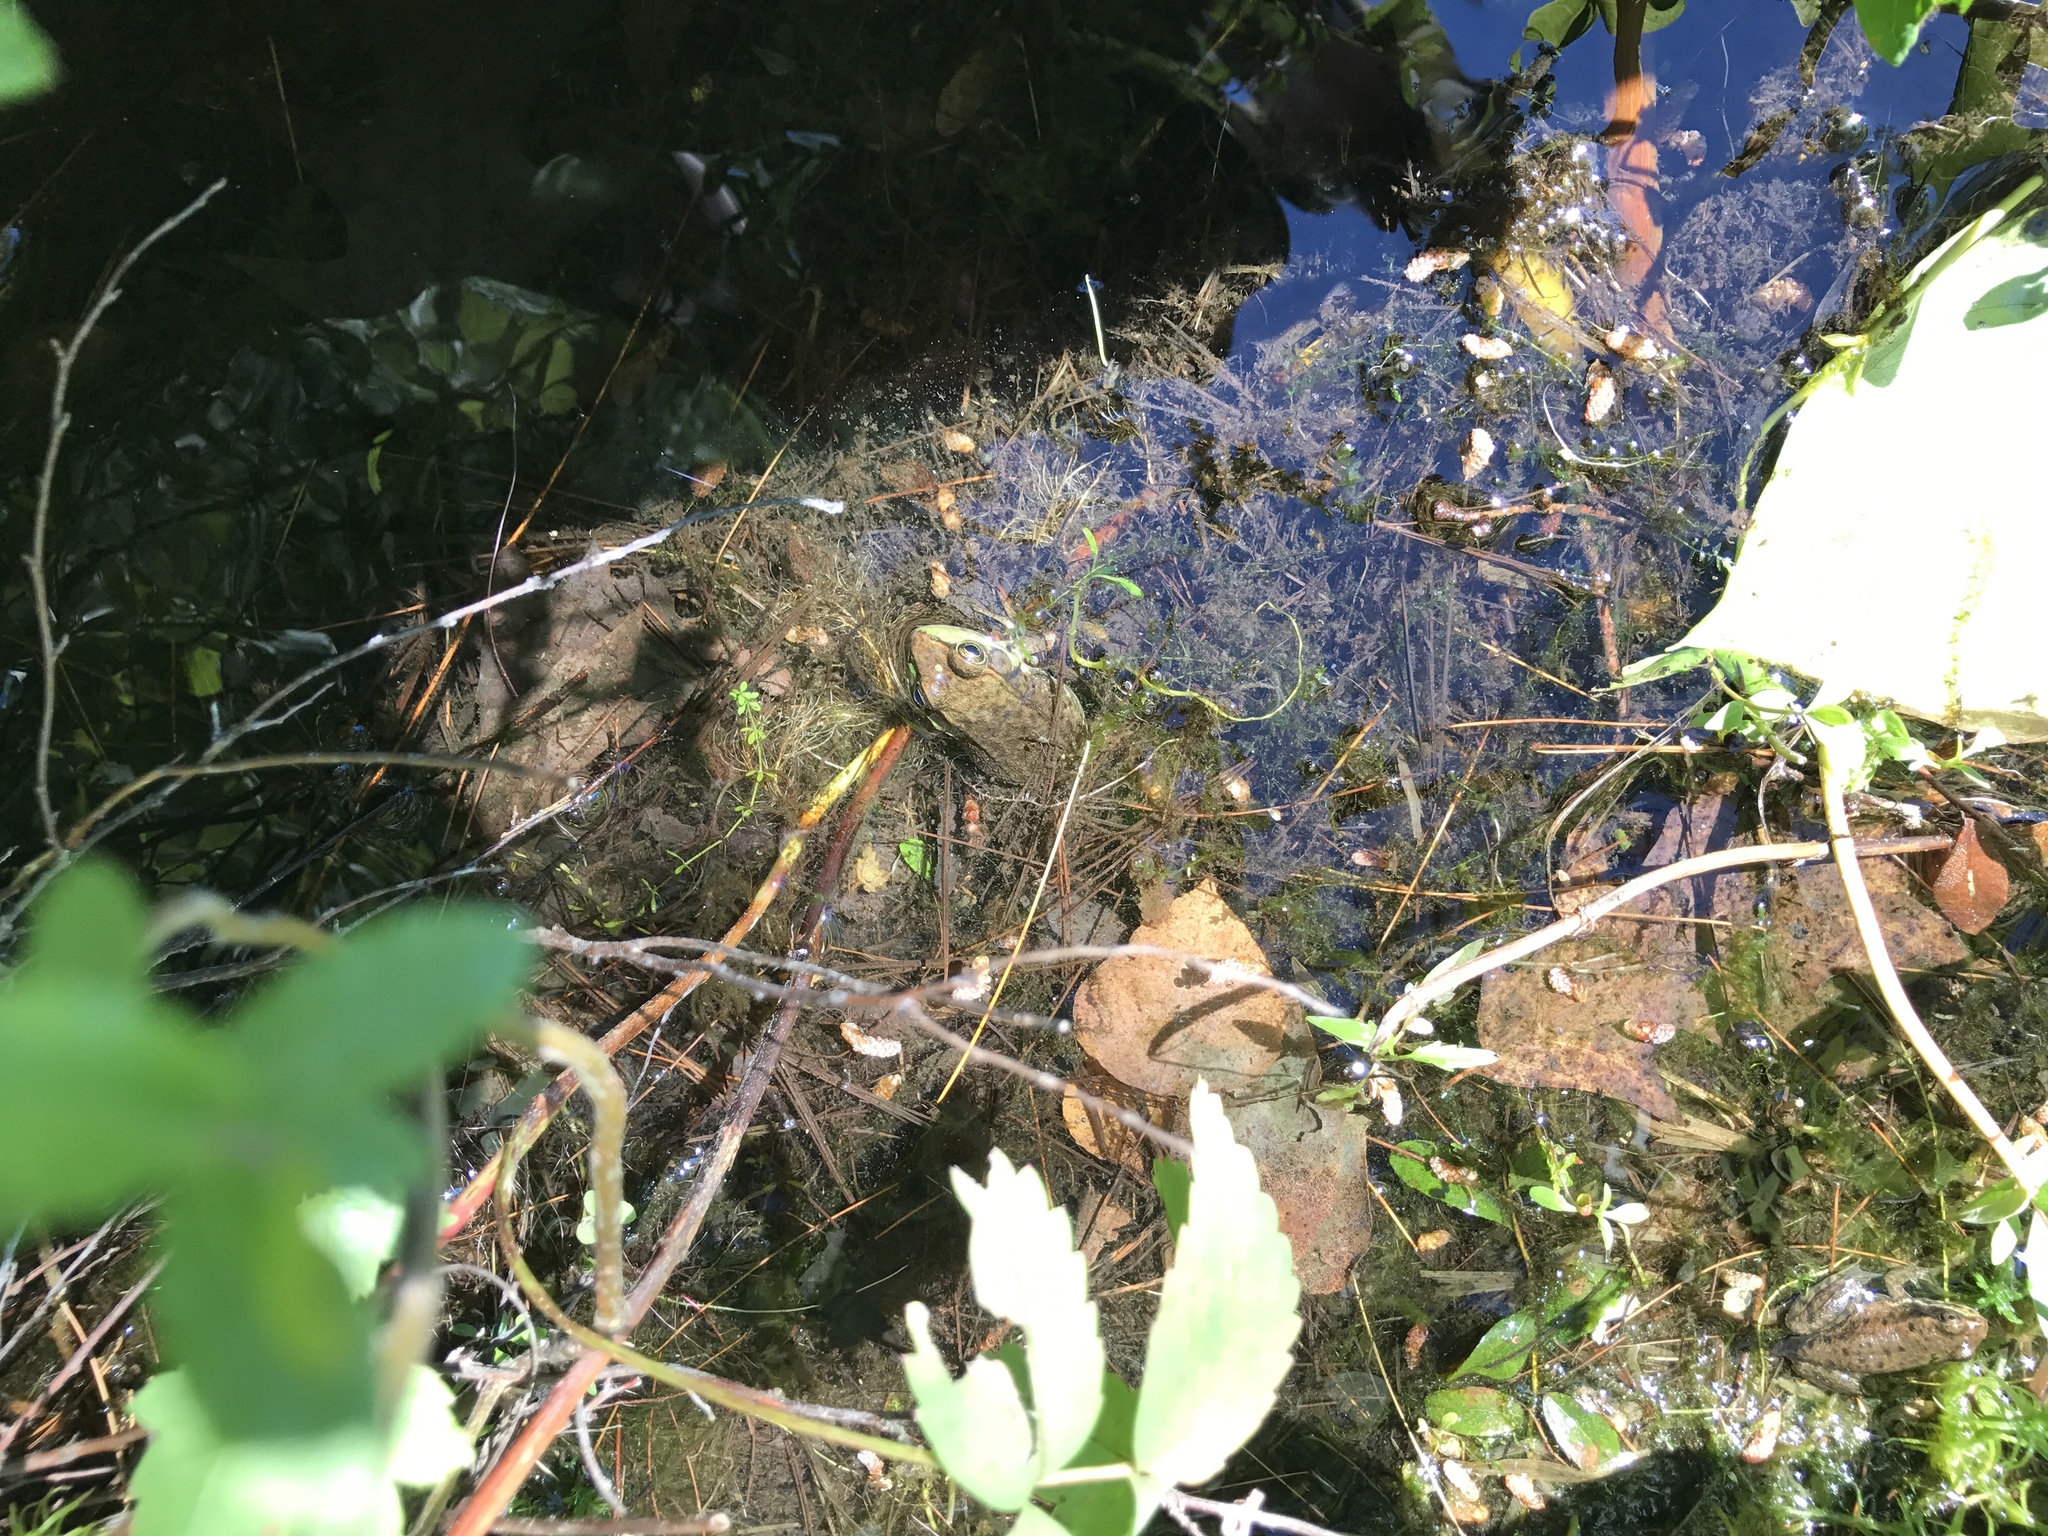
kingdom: Animalia
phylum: Chordata
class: Amphibia
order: Anura
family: Ranidae
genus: Lithobates
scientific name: Lithobates clamitans
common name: Green frog
